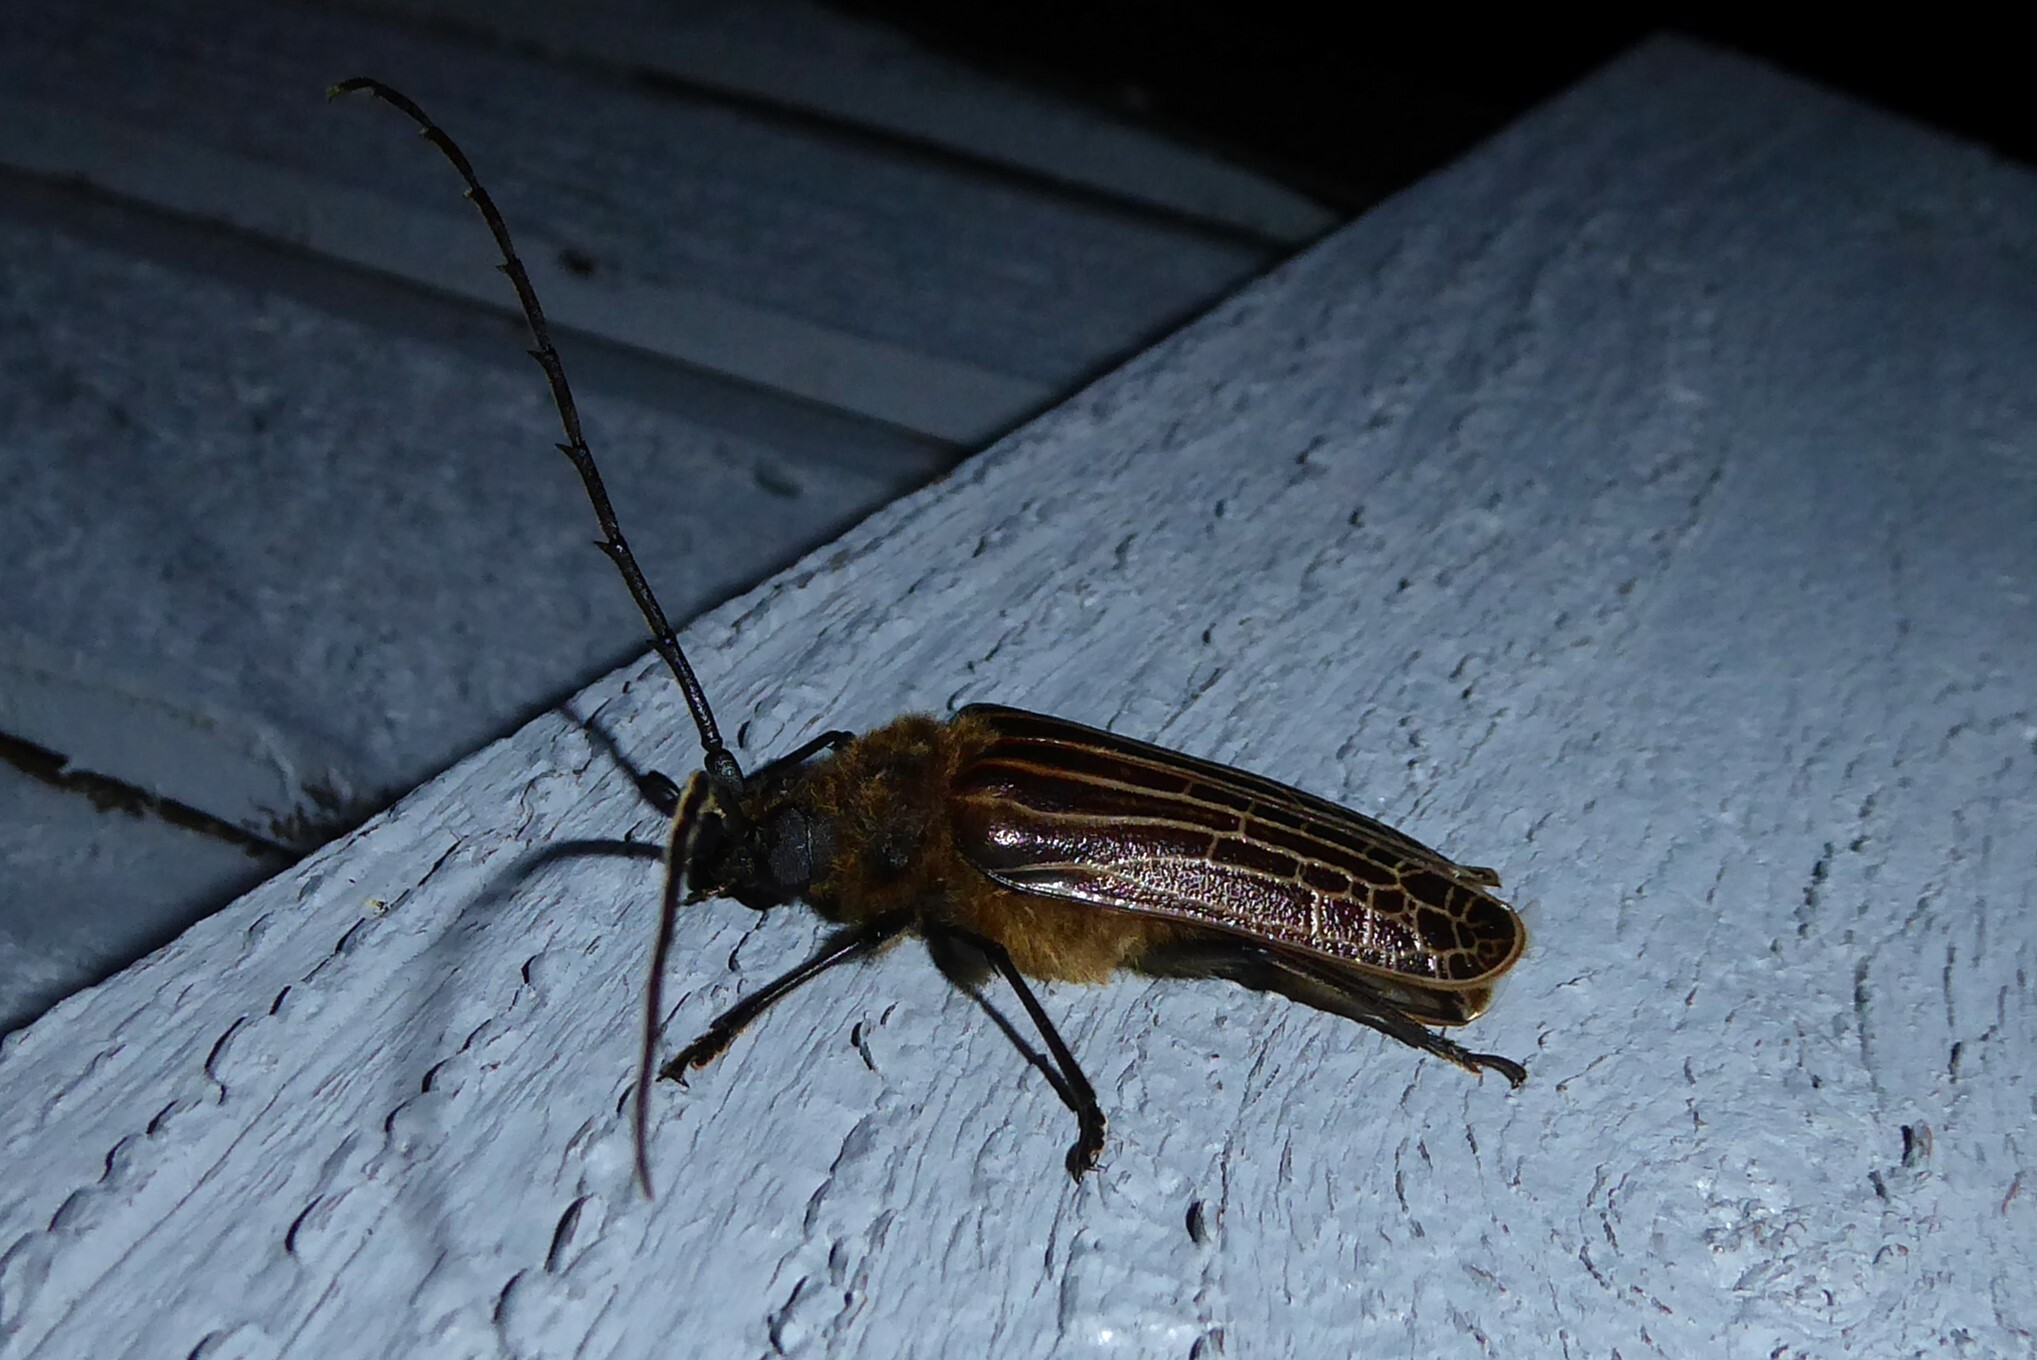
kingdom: Animalia
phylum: Arthropoda
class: Insecta
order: Coleoptera
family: Cerambycidae
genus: Prionoplus
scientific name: Prionoplus reticularis
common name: Huhu beetle
